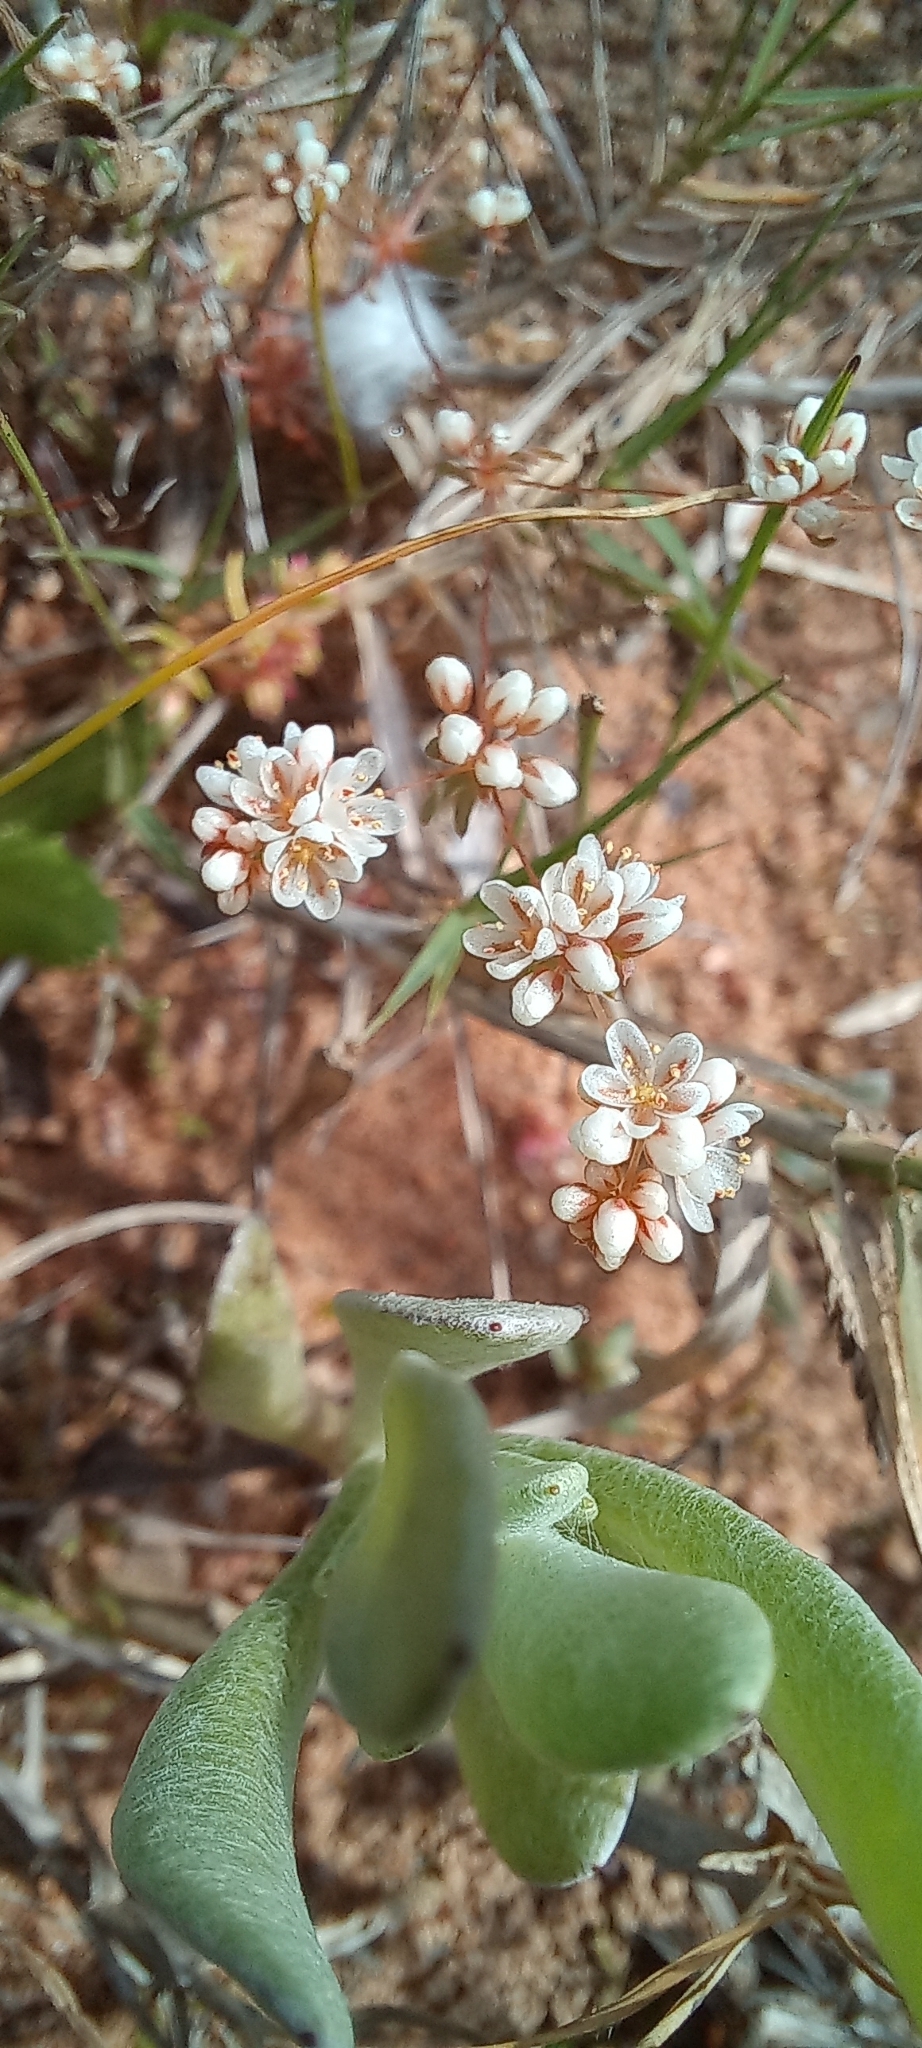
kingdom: Plantae
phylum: Tracheophyta
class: Magnoliopsida
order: Caryophyllales
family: Molluginaceae
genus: Adenogramma
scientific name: Adenogramma glomerata
